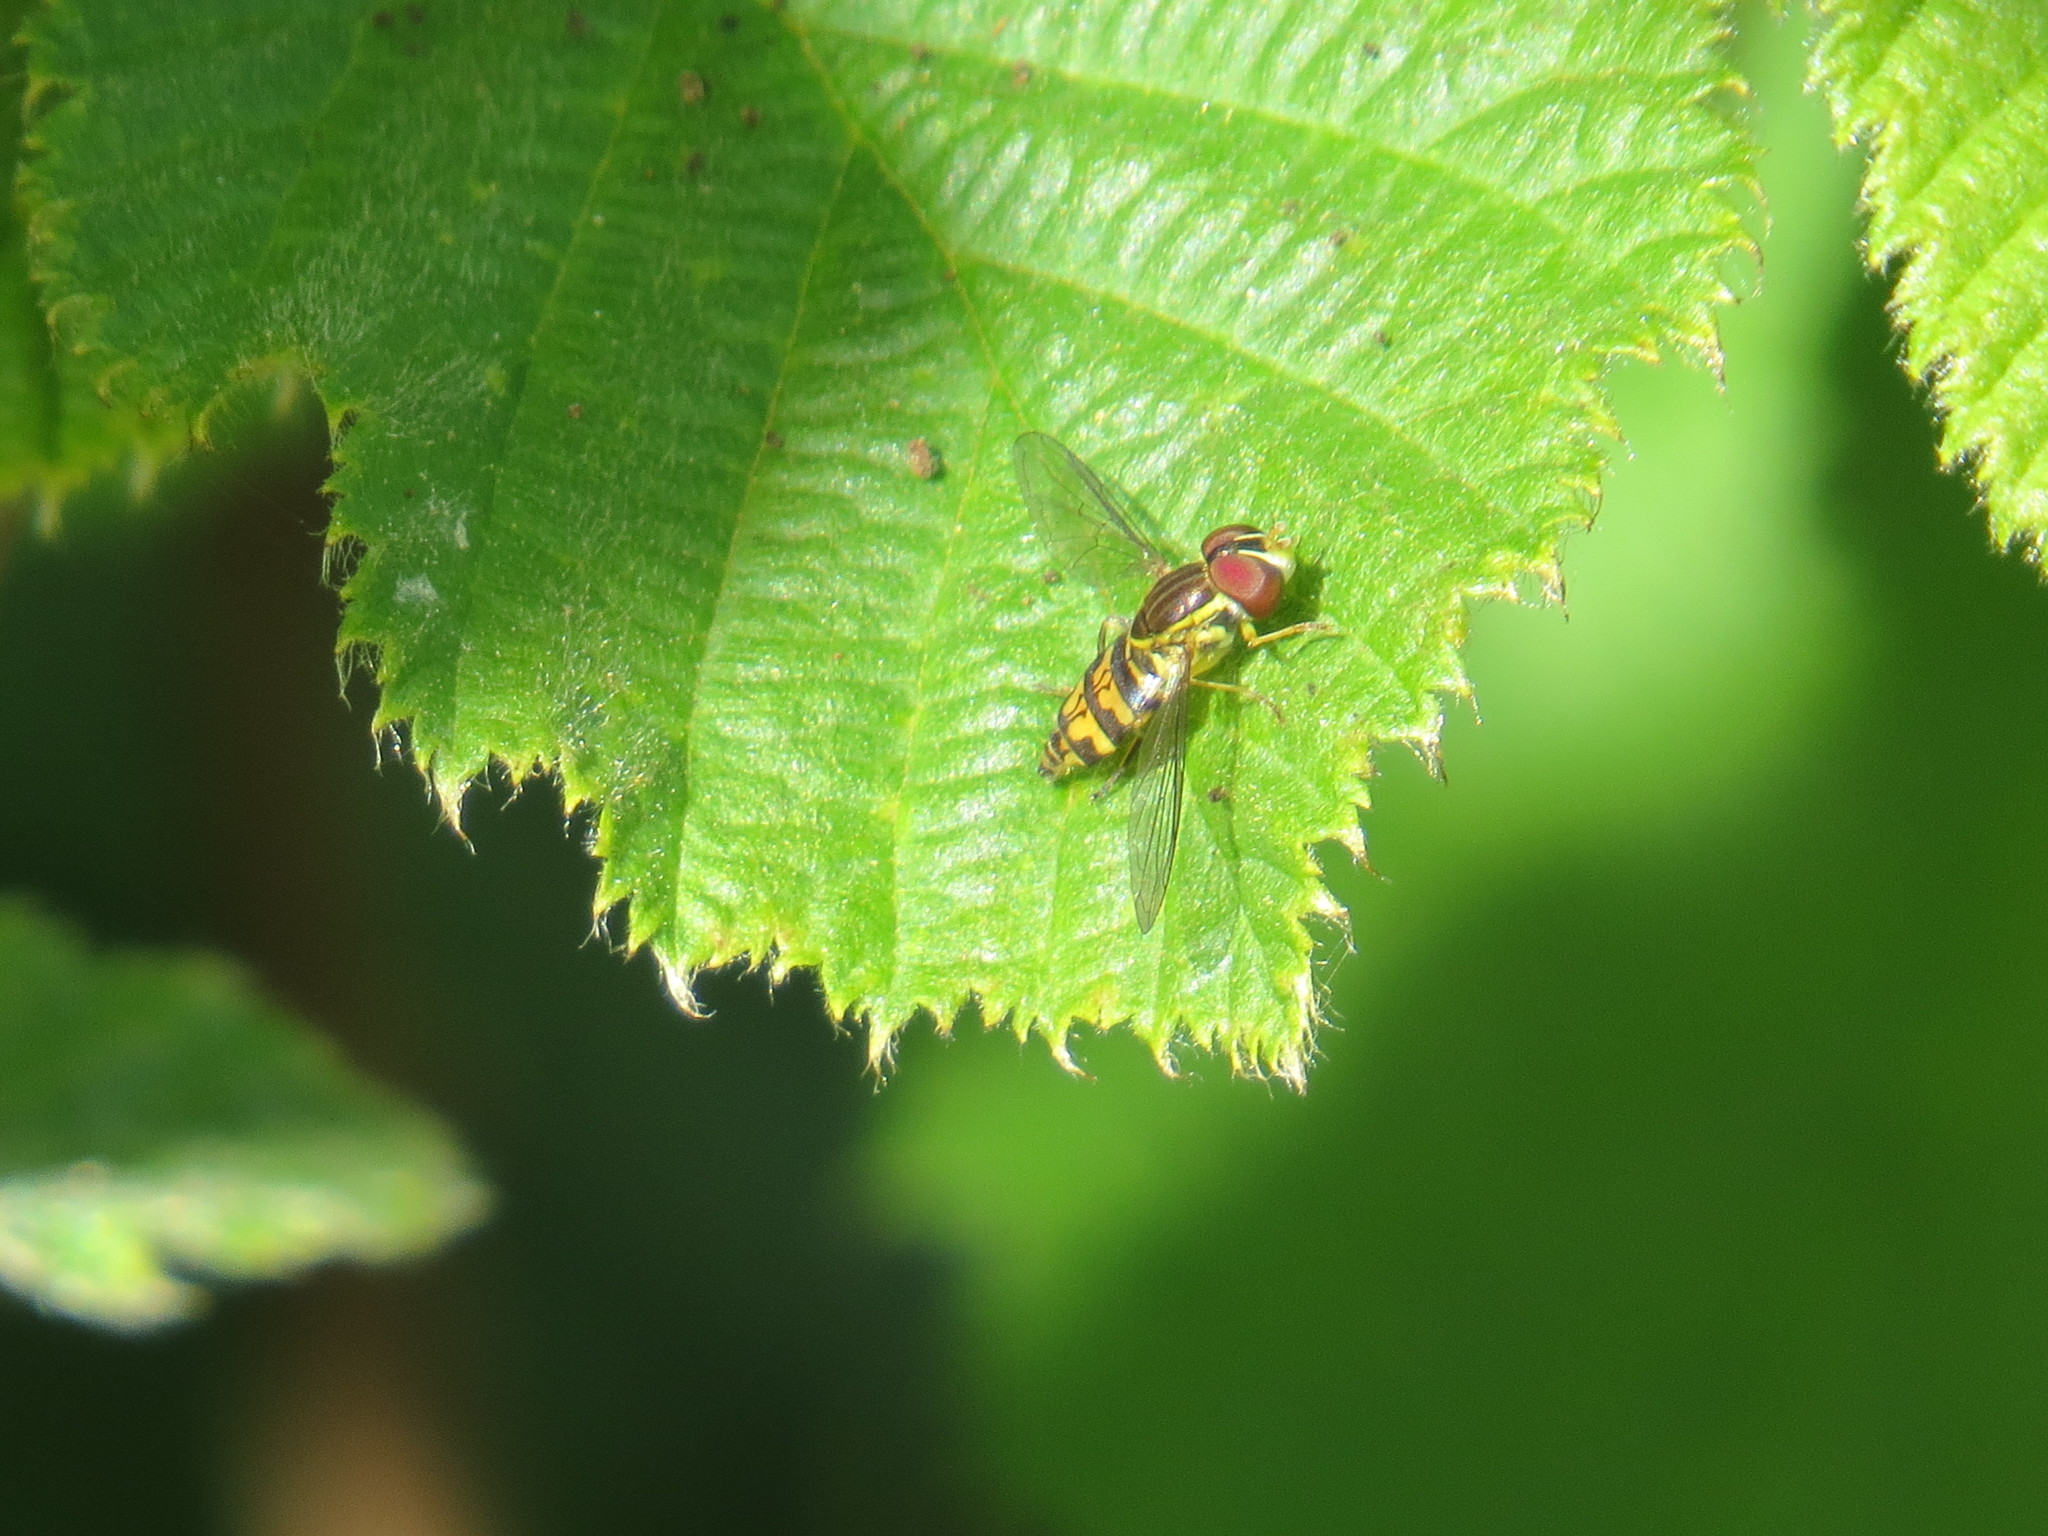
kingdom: Animalia
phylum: Arthropoda
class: Insecta
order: Diptera
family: Syrphidae
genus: Toxomerus
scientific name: Toxomerus occidentalis
